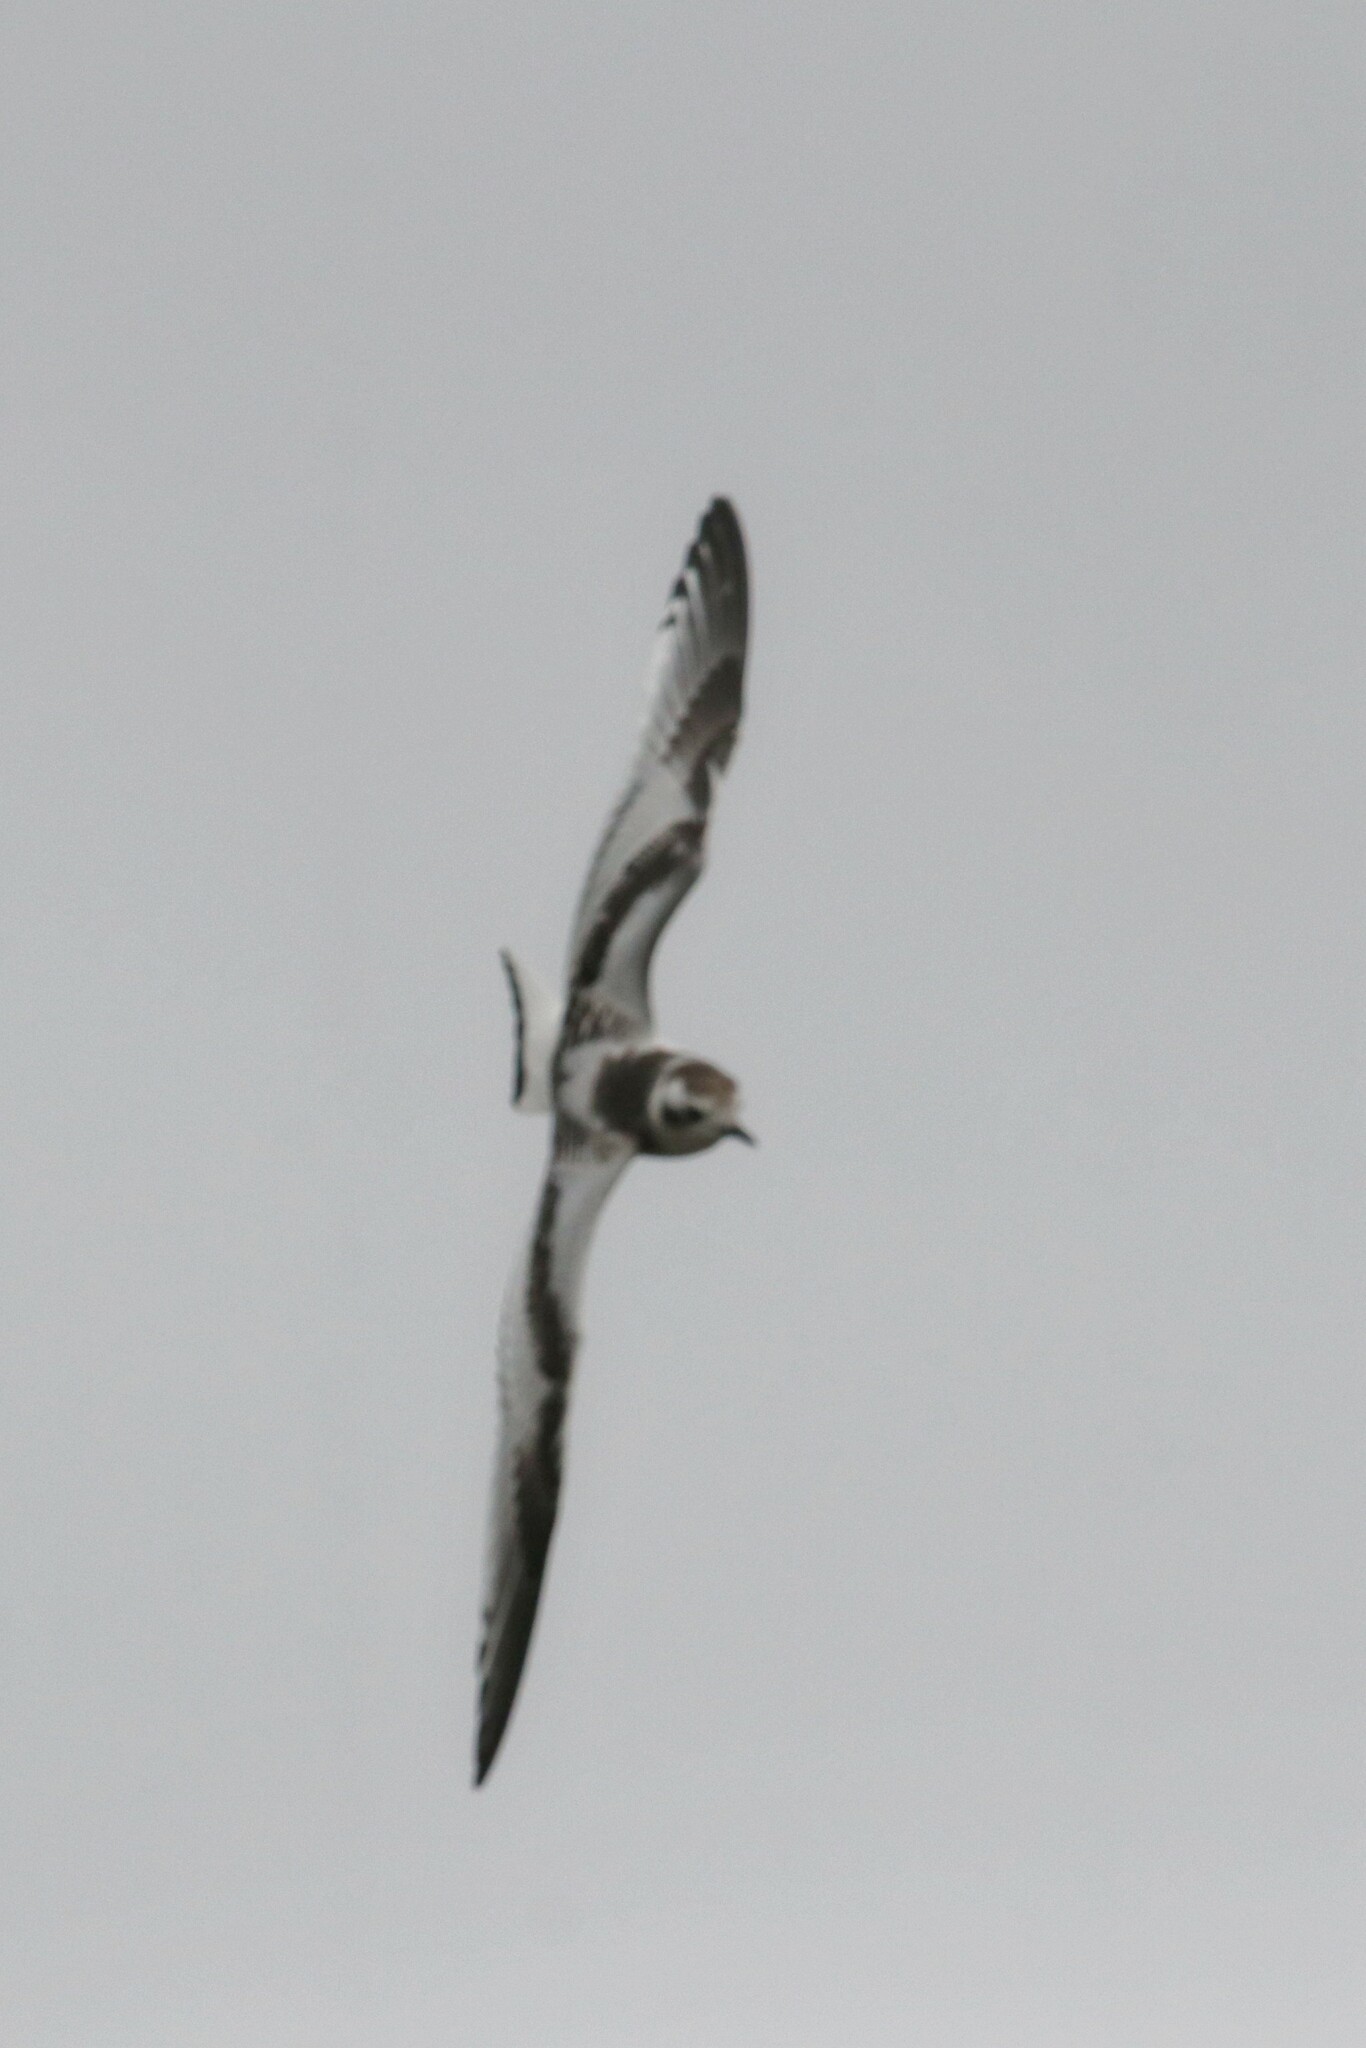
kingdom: Animalia
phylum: Chordata
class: Aves
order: Charadriiformes
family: Laridae
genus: Hydrocoloeus
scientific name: Hydrocoloeus minutus
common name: Little gull
